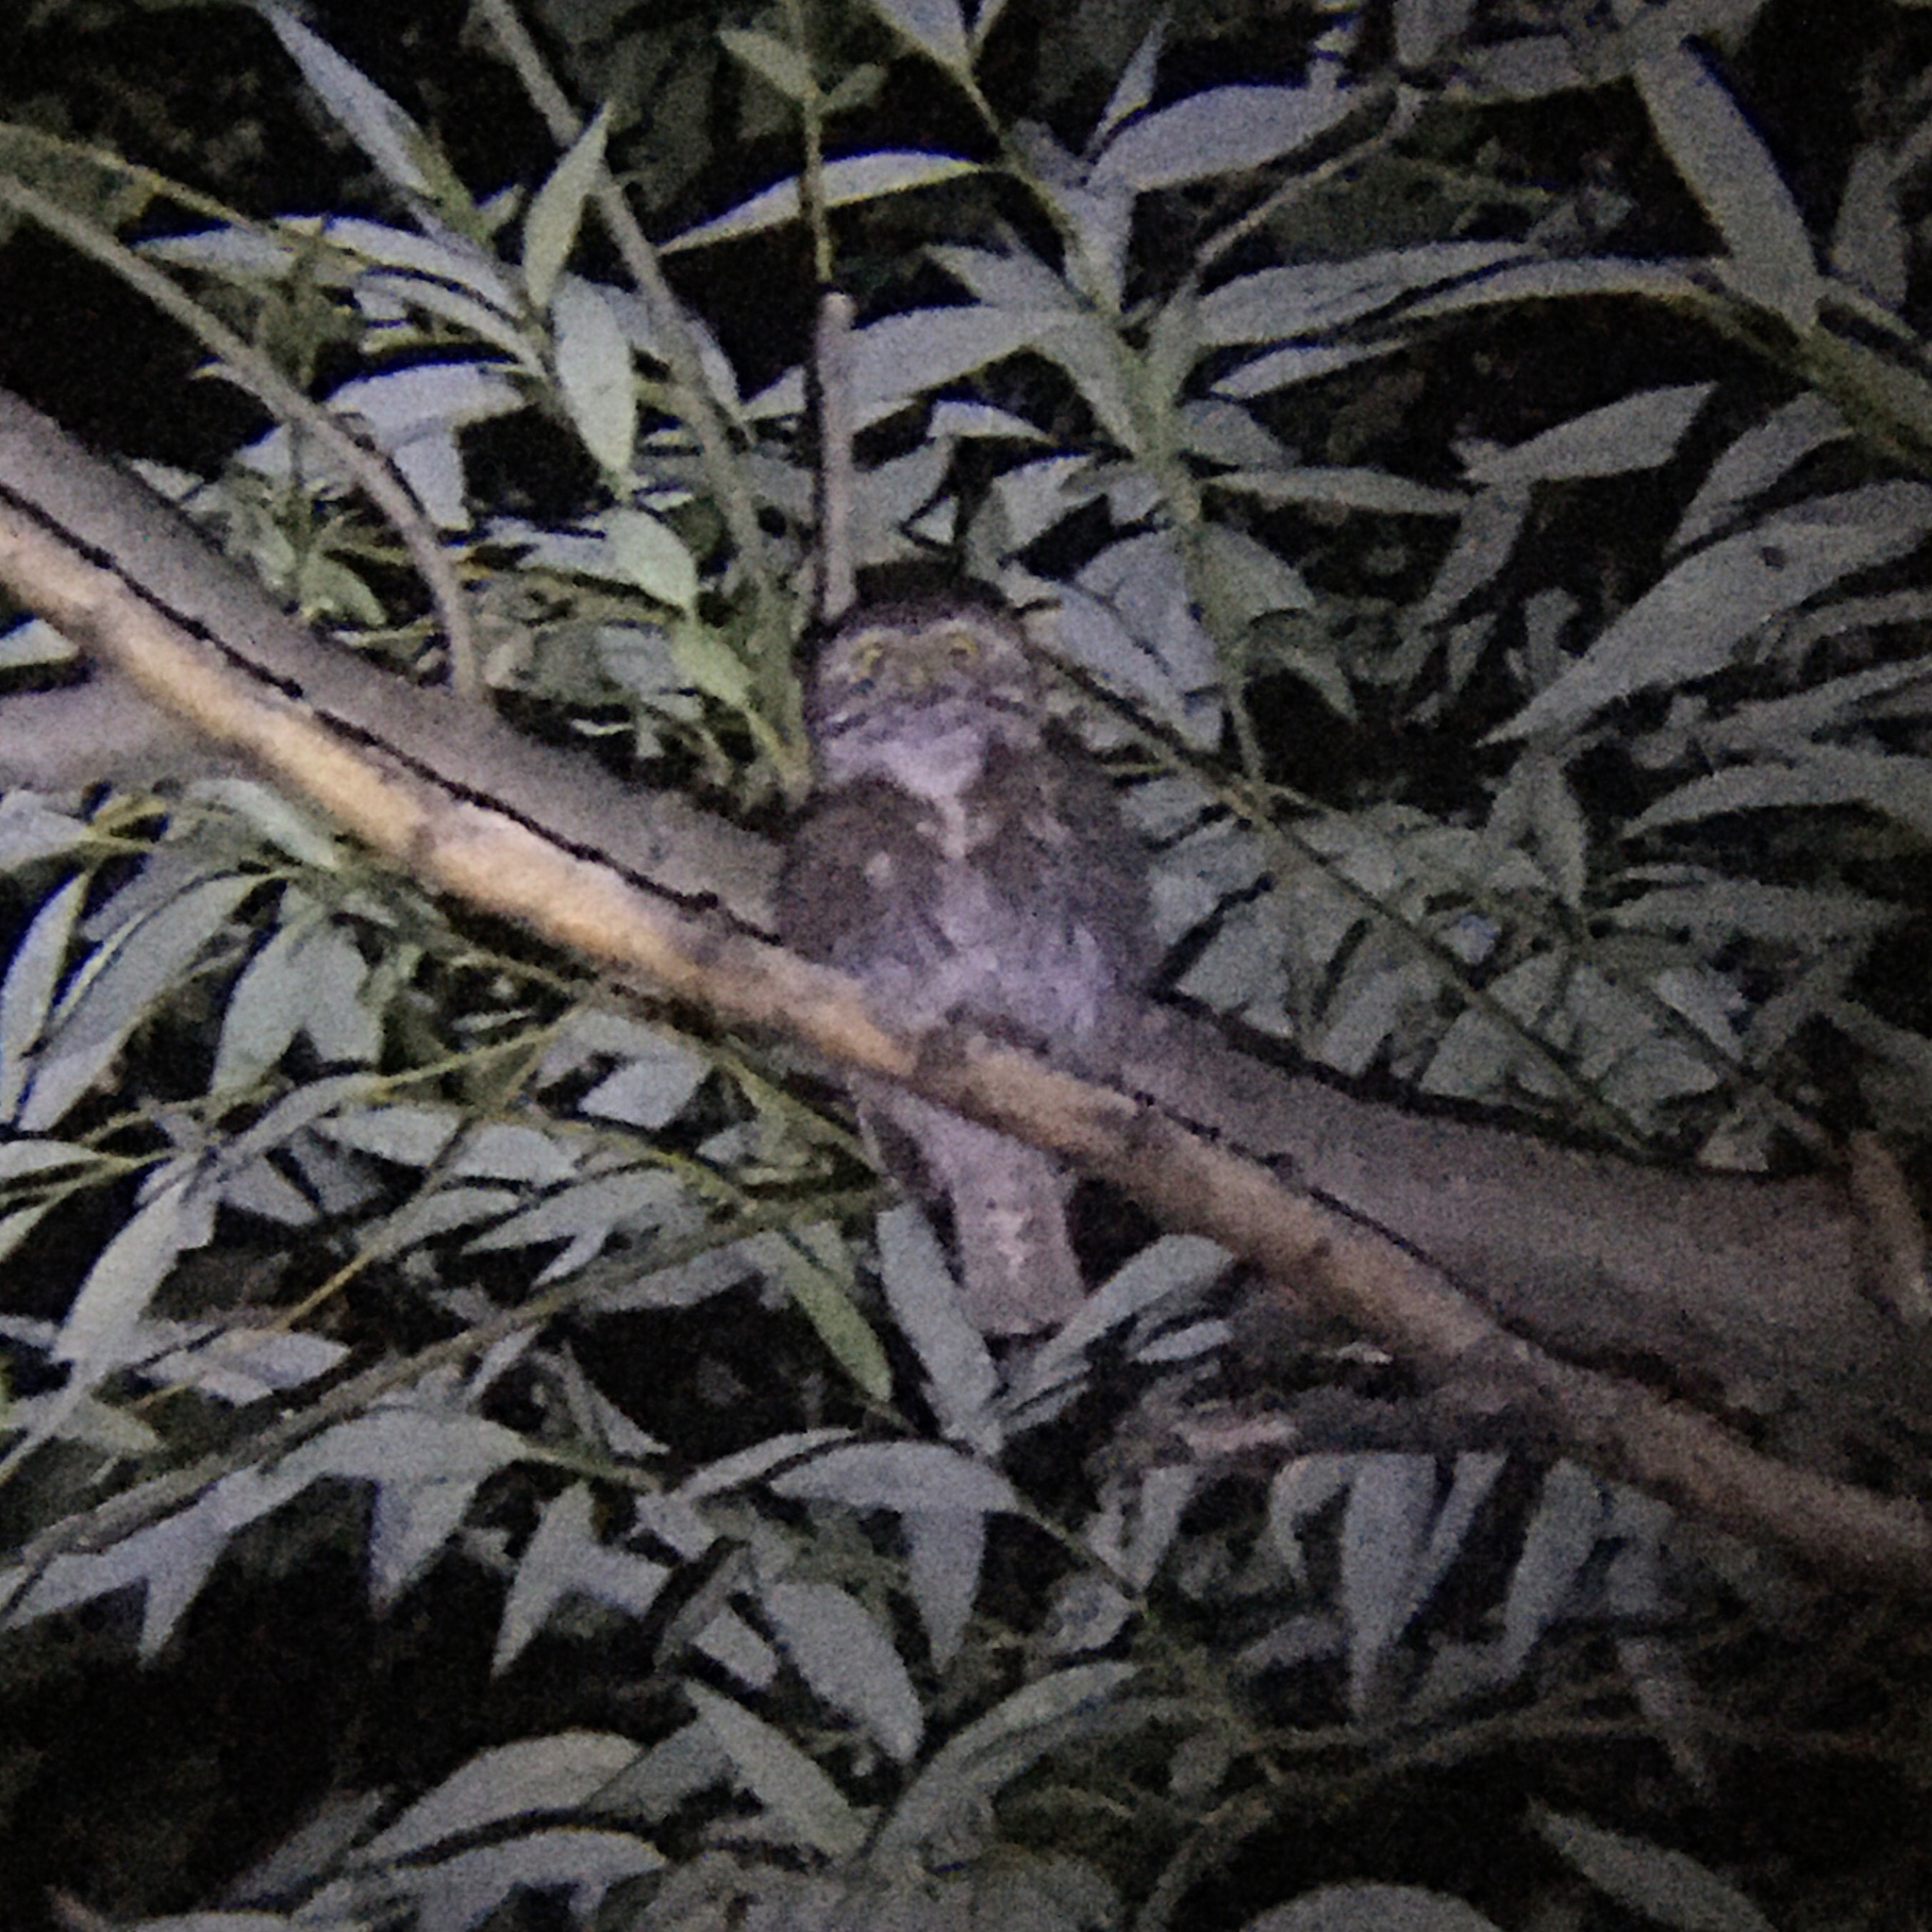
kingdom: Animalia
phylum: Chordata
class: Aves
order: Strigiformes
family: Strigidae
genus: Glaucidium
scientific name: Glaucidium nana
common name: Austral pygmy-owl
